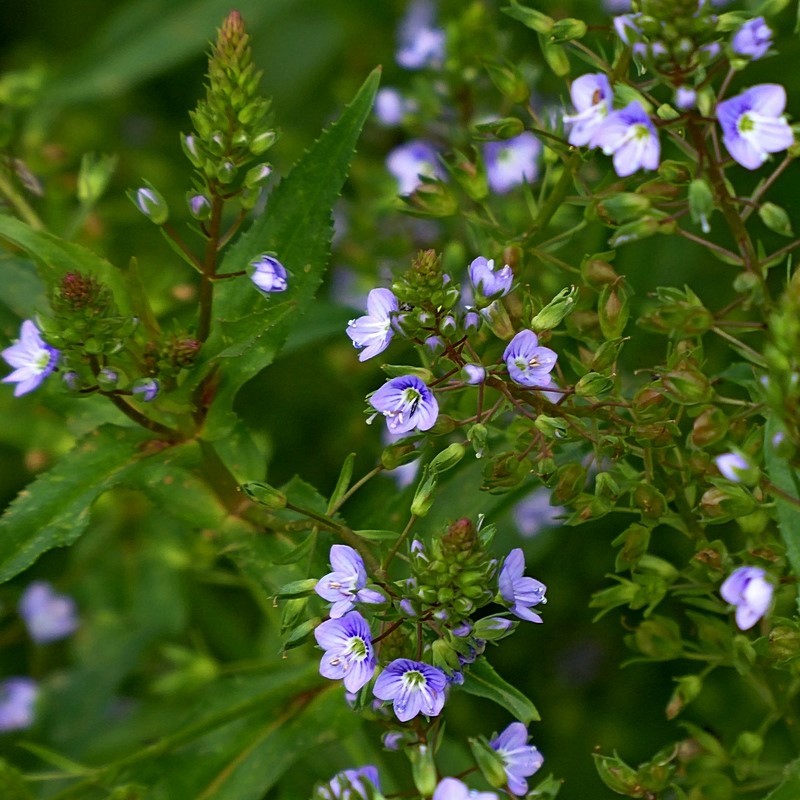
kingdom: Plantae
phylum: Tracheophyta
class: Magnoliopsida
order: Lamiales
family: Plantaginaceae
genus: Veronica
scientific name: Veronica anagallis-aquatica
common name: Water speedwell
